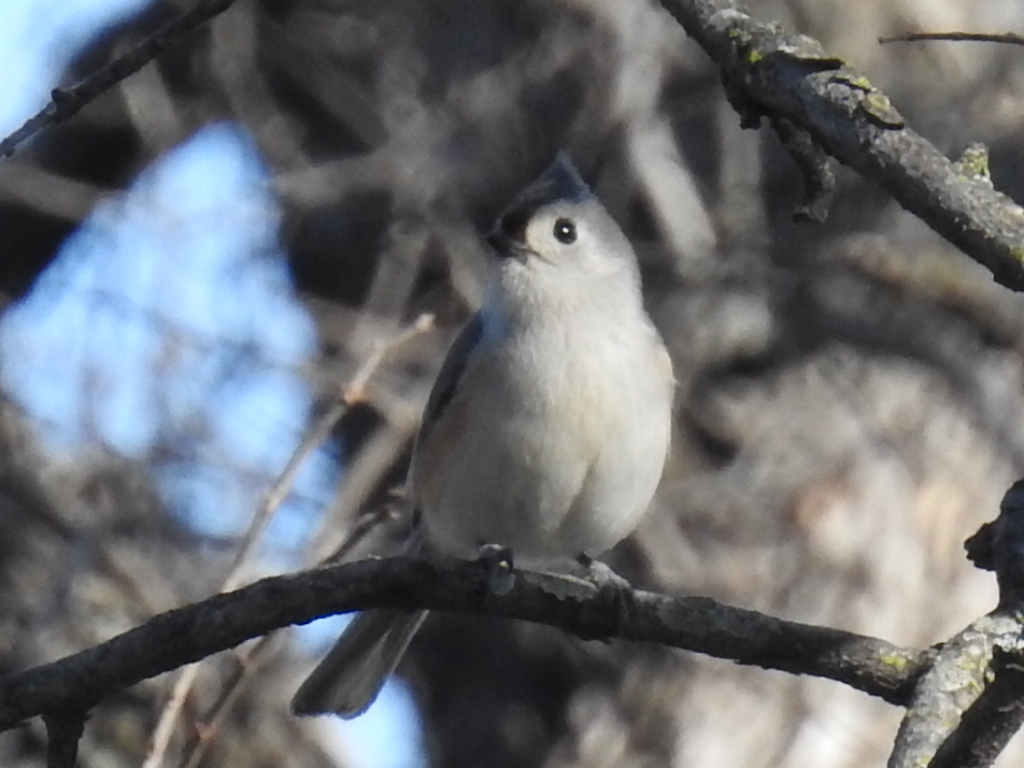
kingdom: Animalia
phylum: Chordata
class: Aves
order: Passeriformes
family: Paridae
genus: Baeolophus
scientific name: Baeolophus bicolor
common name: Tufted titmouse
